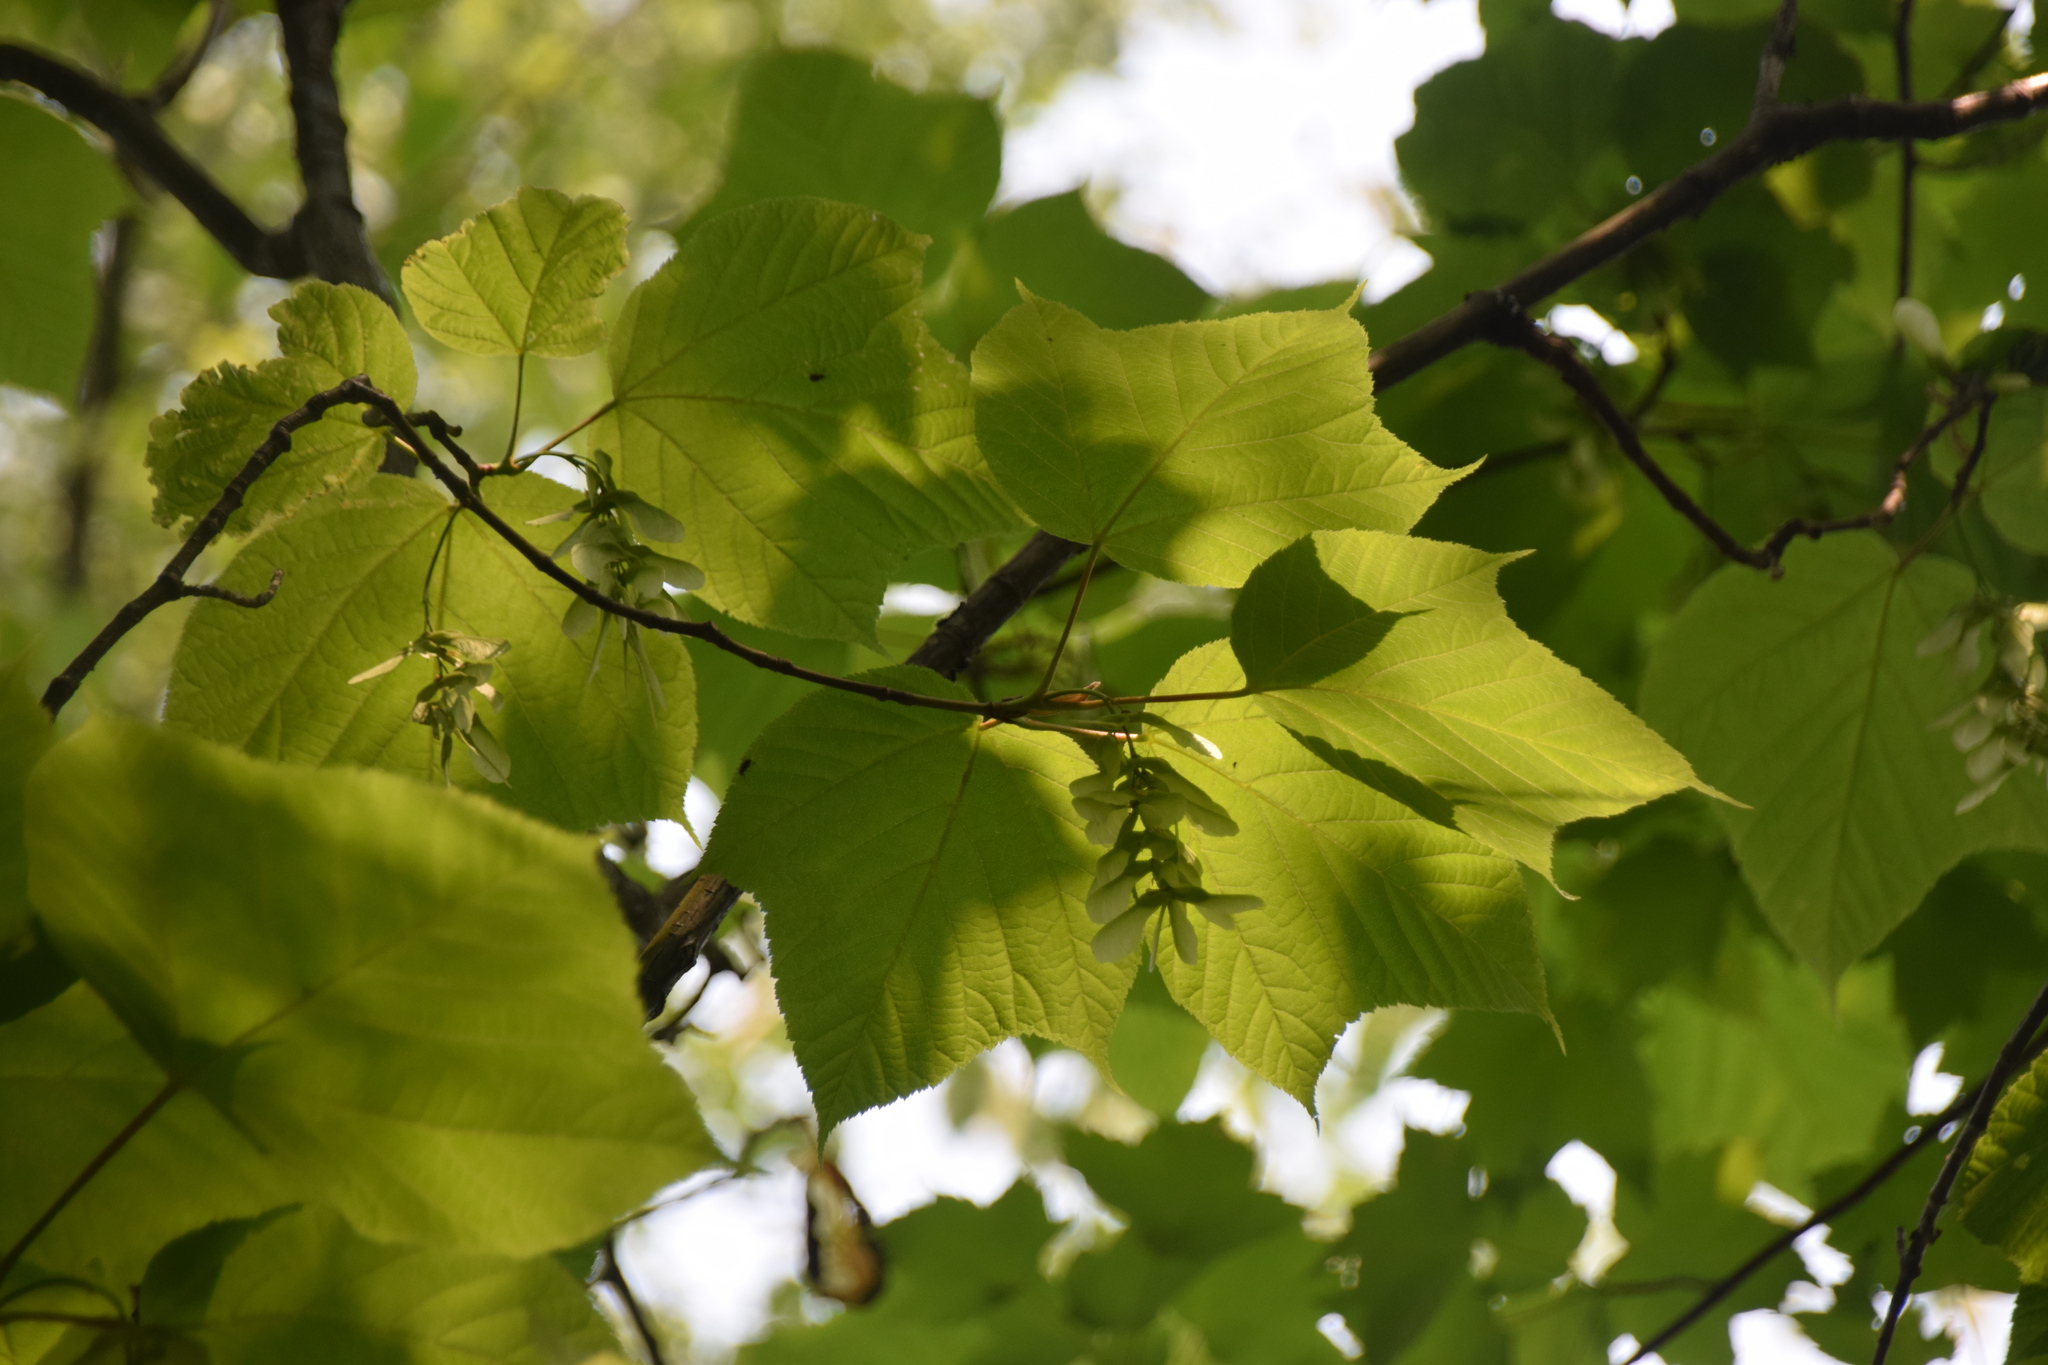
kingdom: Plantae
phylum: Tracheophyta
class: Magnoliopsida
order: Sapindales
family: Sapindaceae
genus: Acer
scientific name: Acer pensylvanicum
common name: Moosewood
